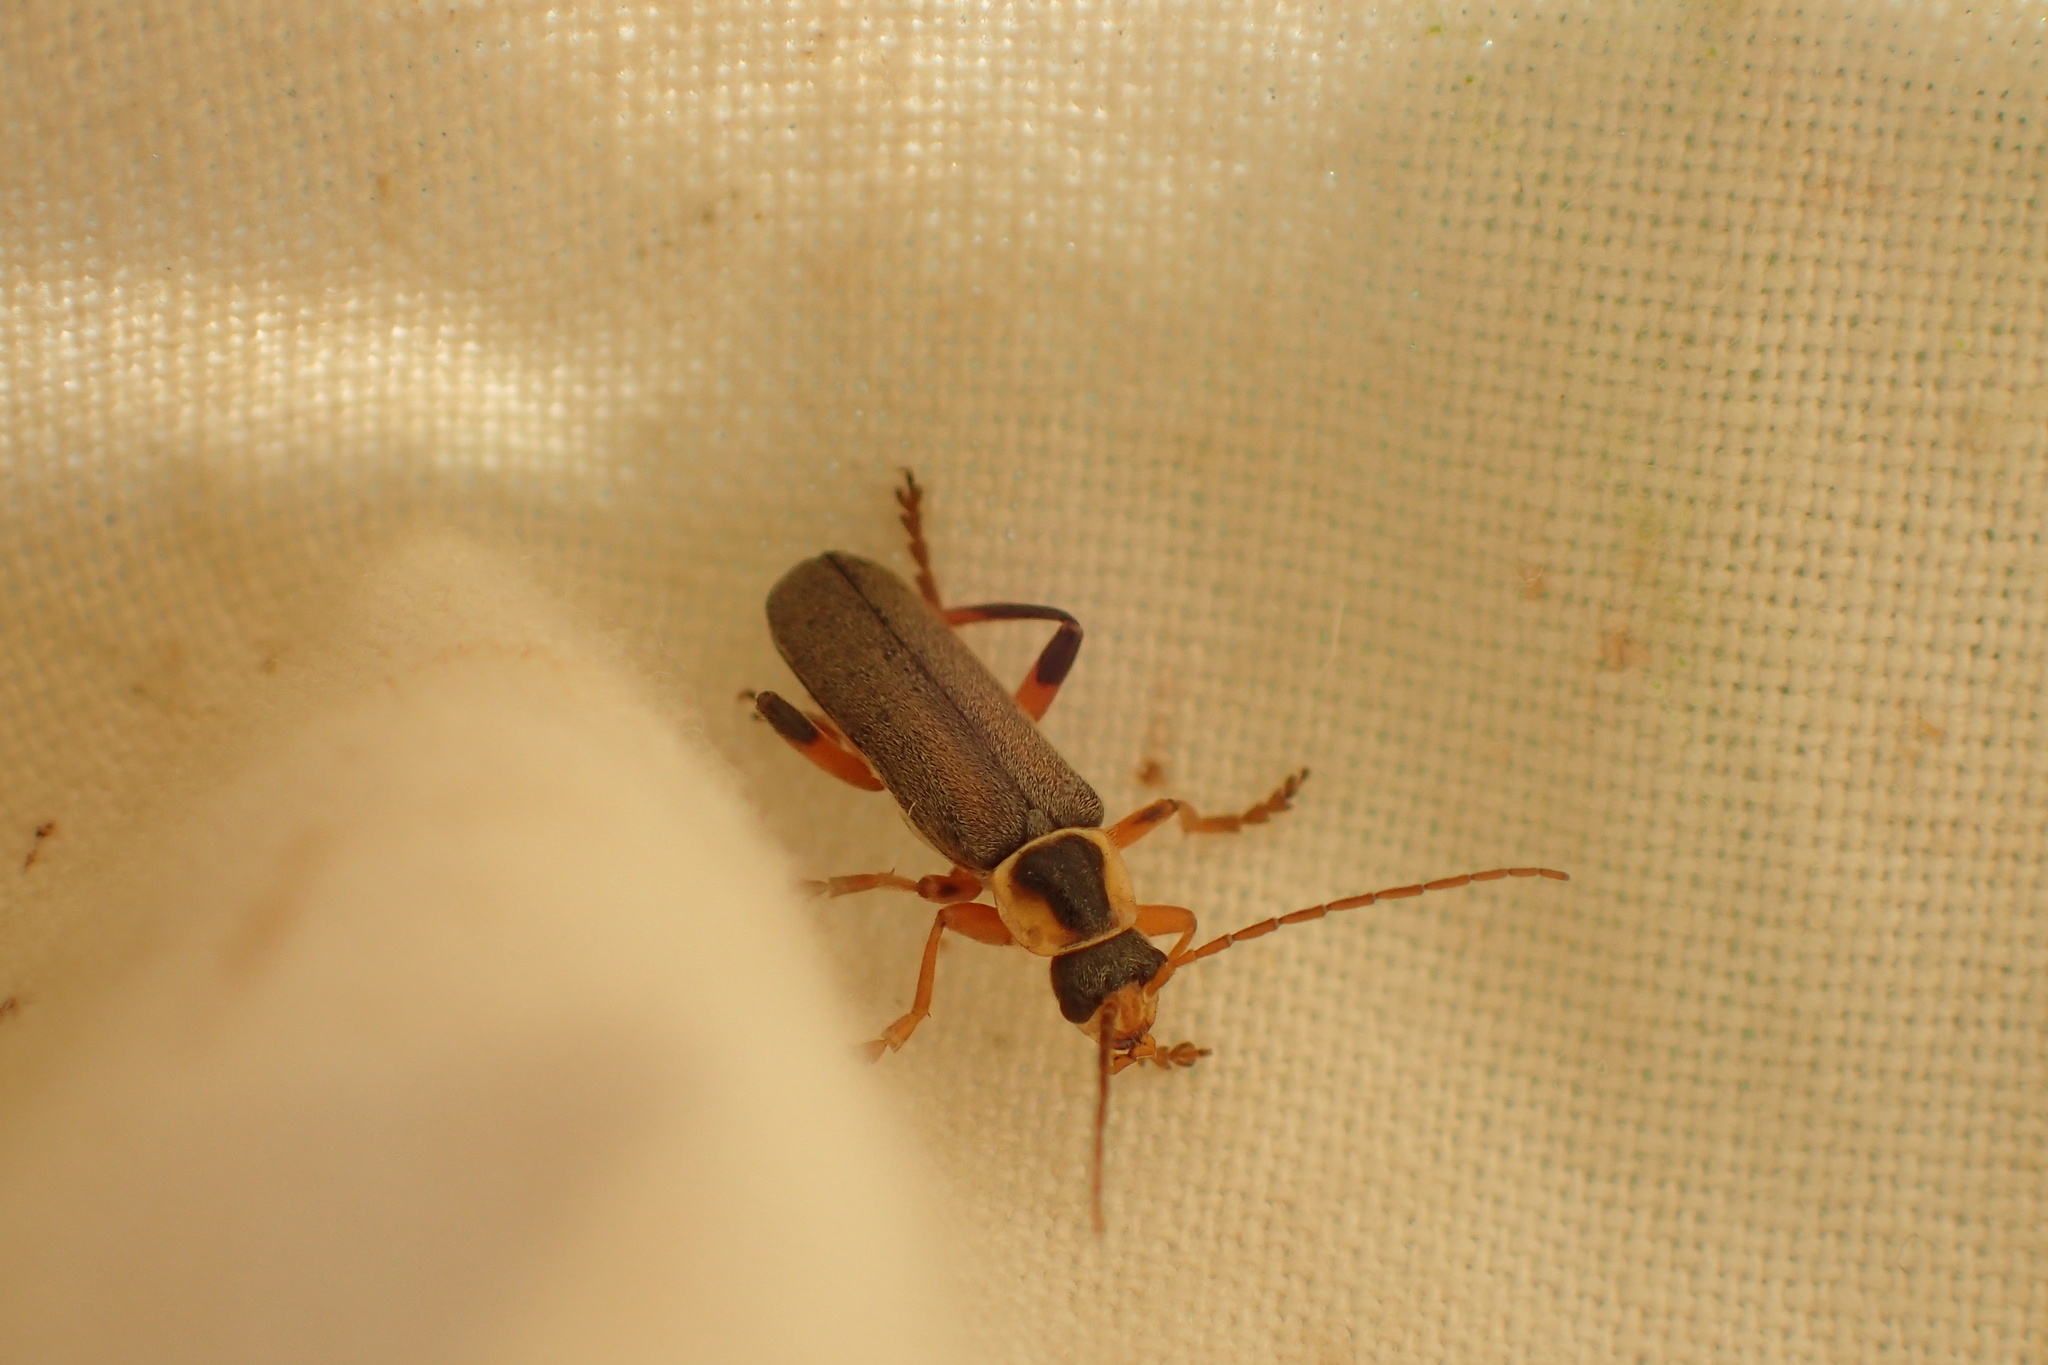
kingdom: Animalia
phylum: Arthropoda
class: Insecta
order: Coleoptera
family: Cantharidae
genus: Cantharis
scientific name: Cantharis nigricans
